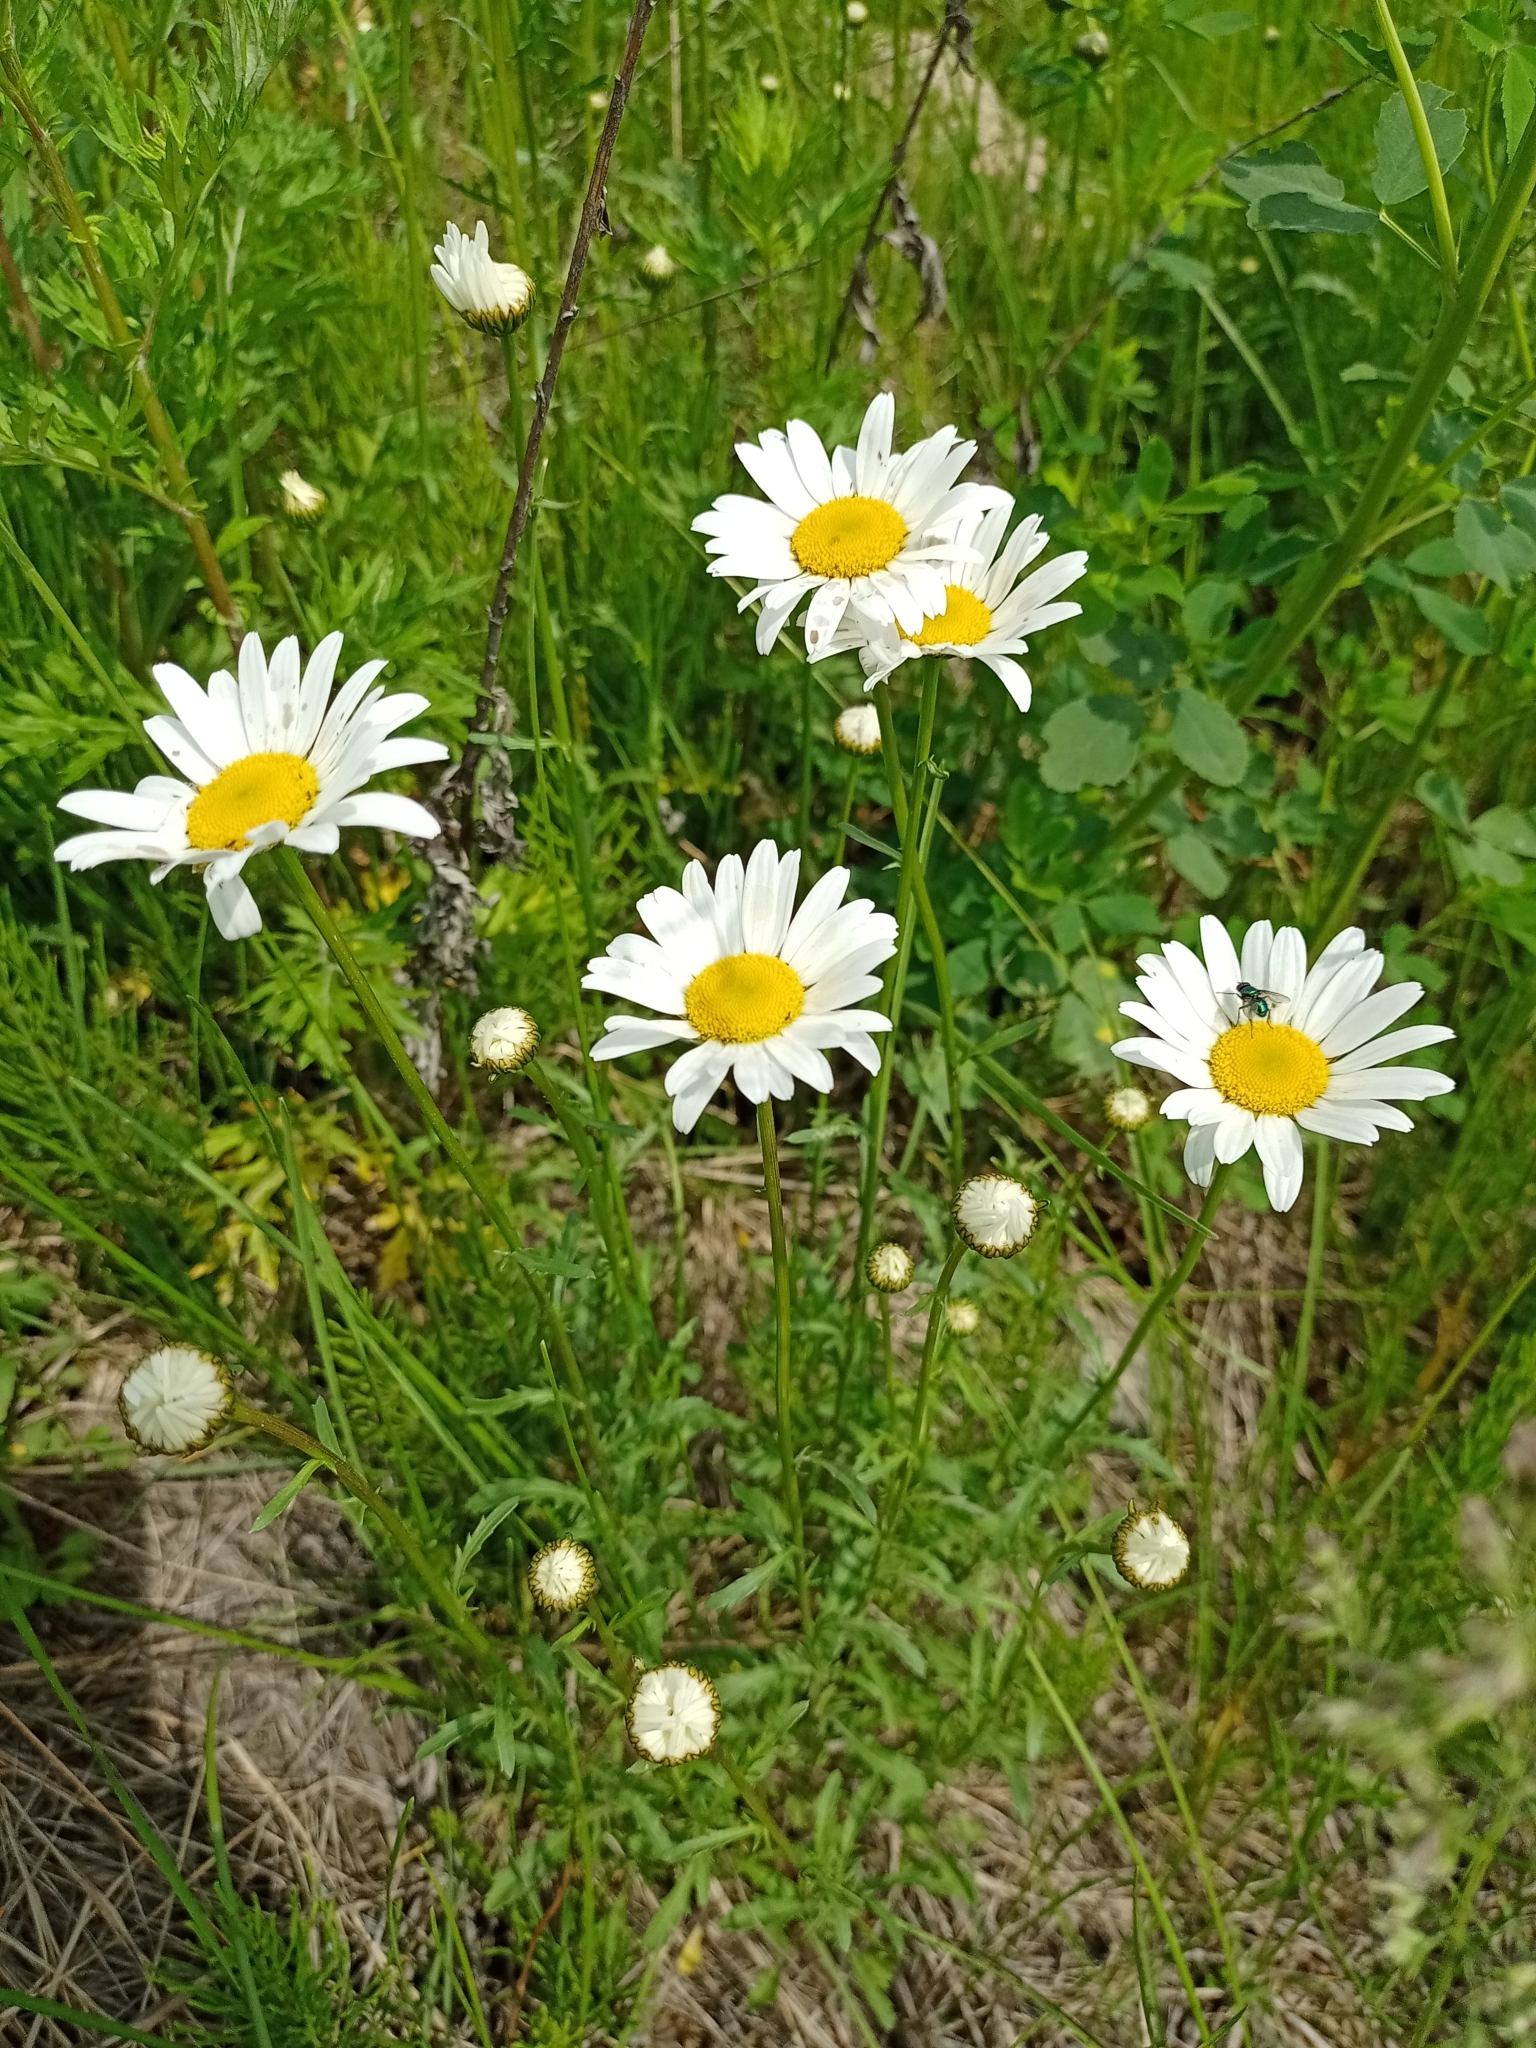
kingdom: Plantae
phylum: Tracheophyta
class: Magnoliopsida
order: Asterales
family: Asteraceae
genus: Leucanthemum
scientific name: Leucanthemum ircutianum
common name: Daisy
